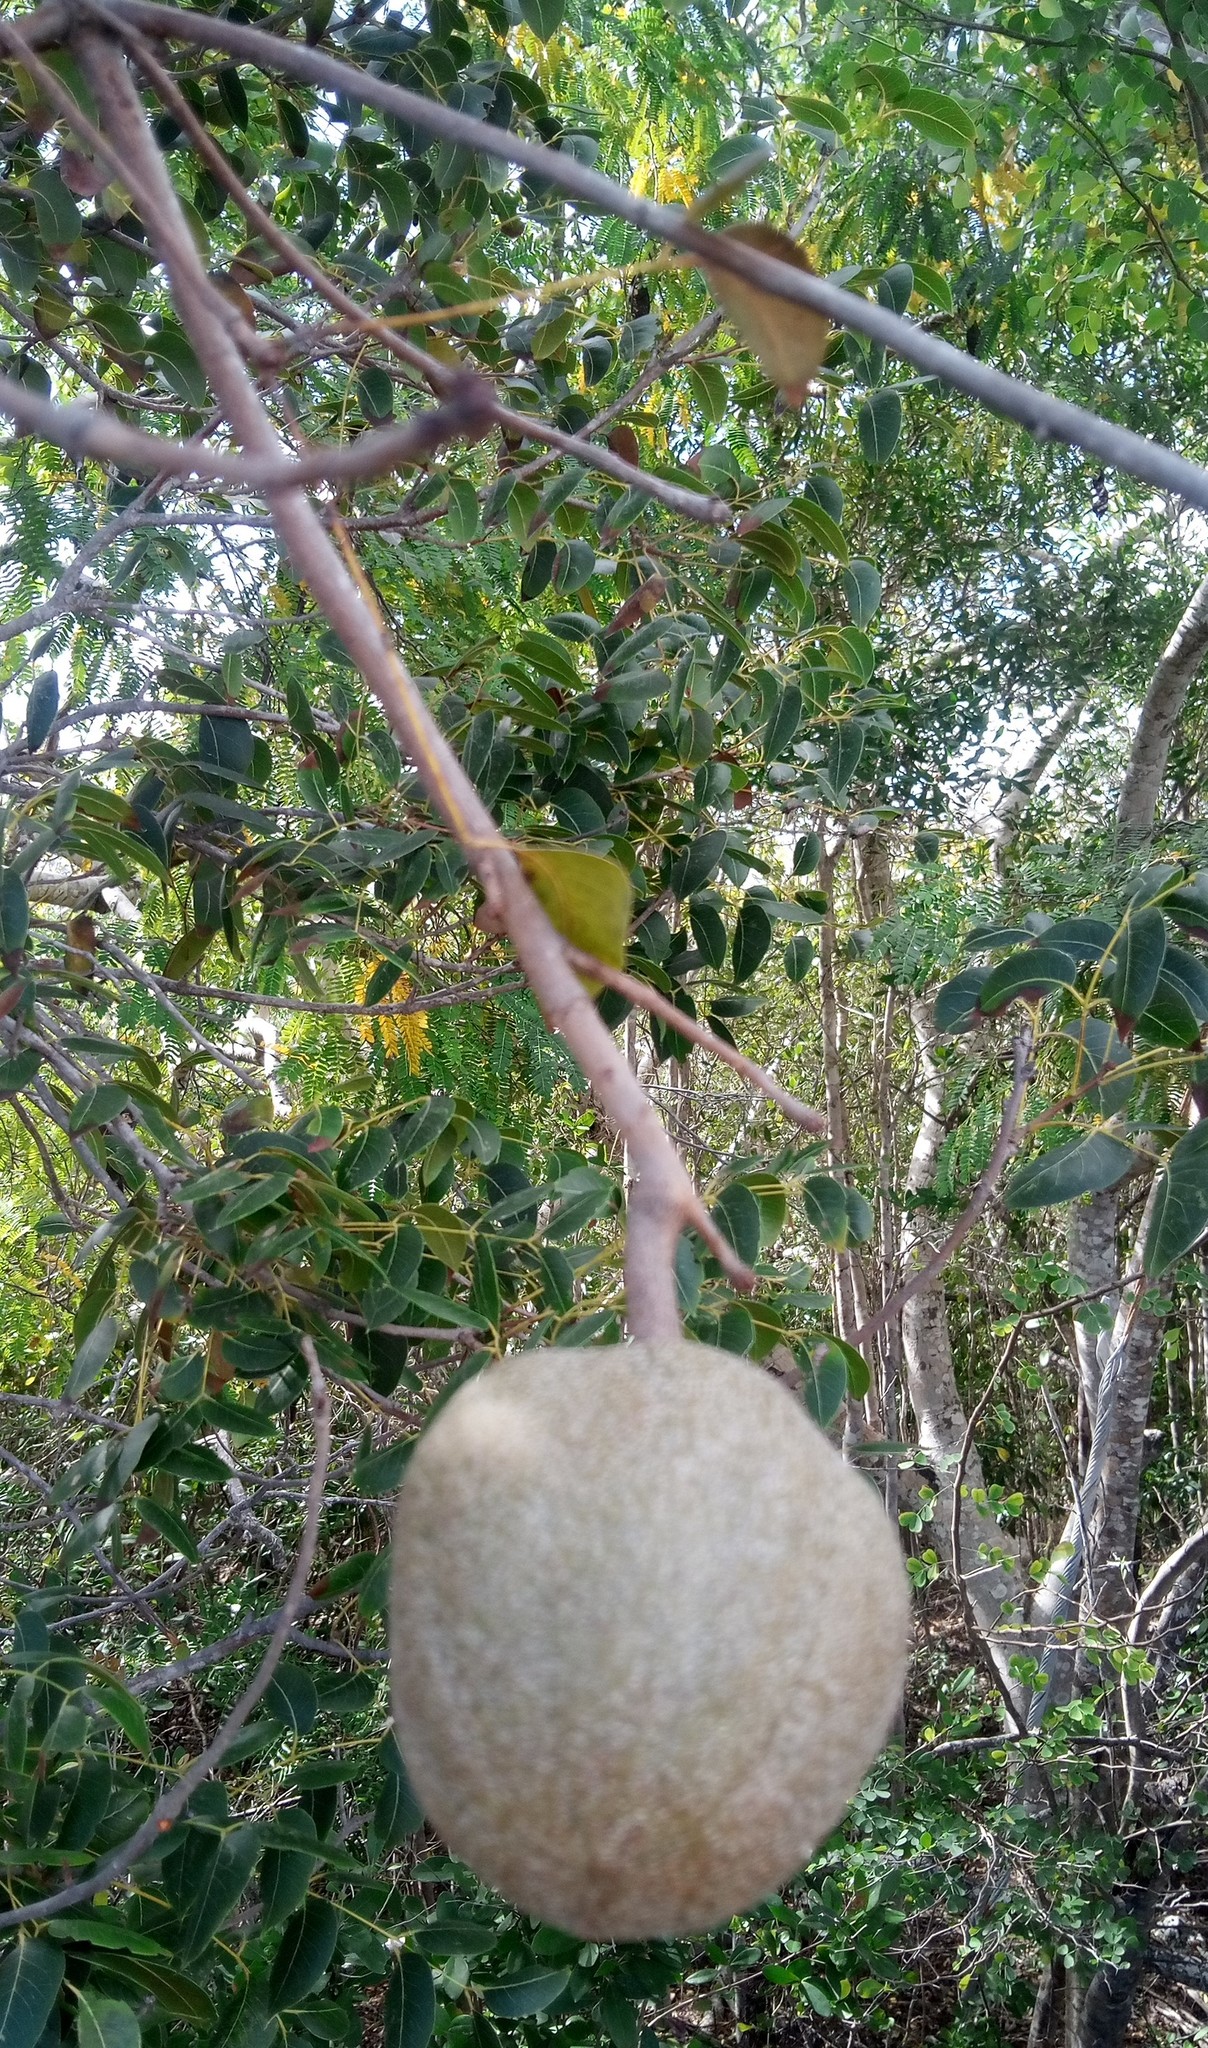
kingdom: Plantae
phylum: Tracheophyta
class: Magnoliopsida
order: Sapindales
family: Meliaceae
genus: Swietenia
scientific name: Swietenia mahagoni
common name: West indian mahogany
